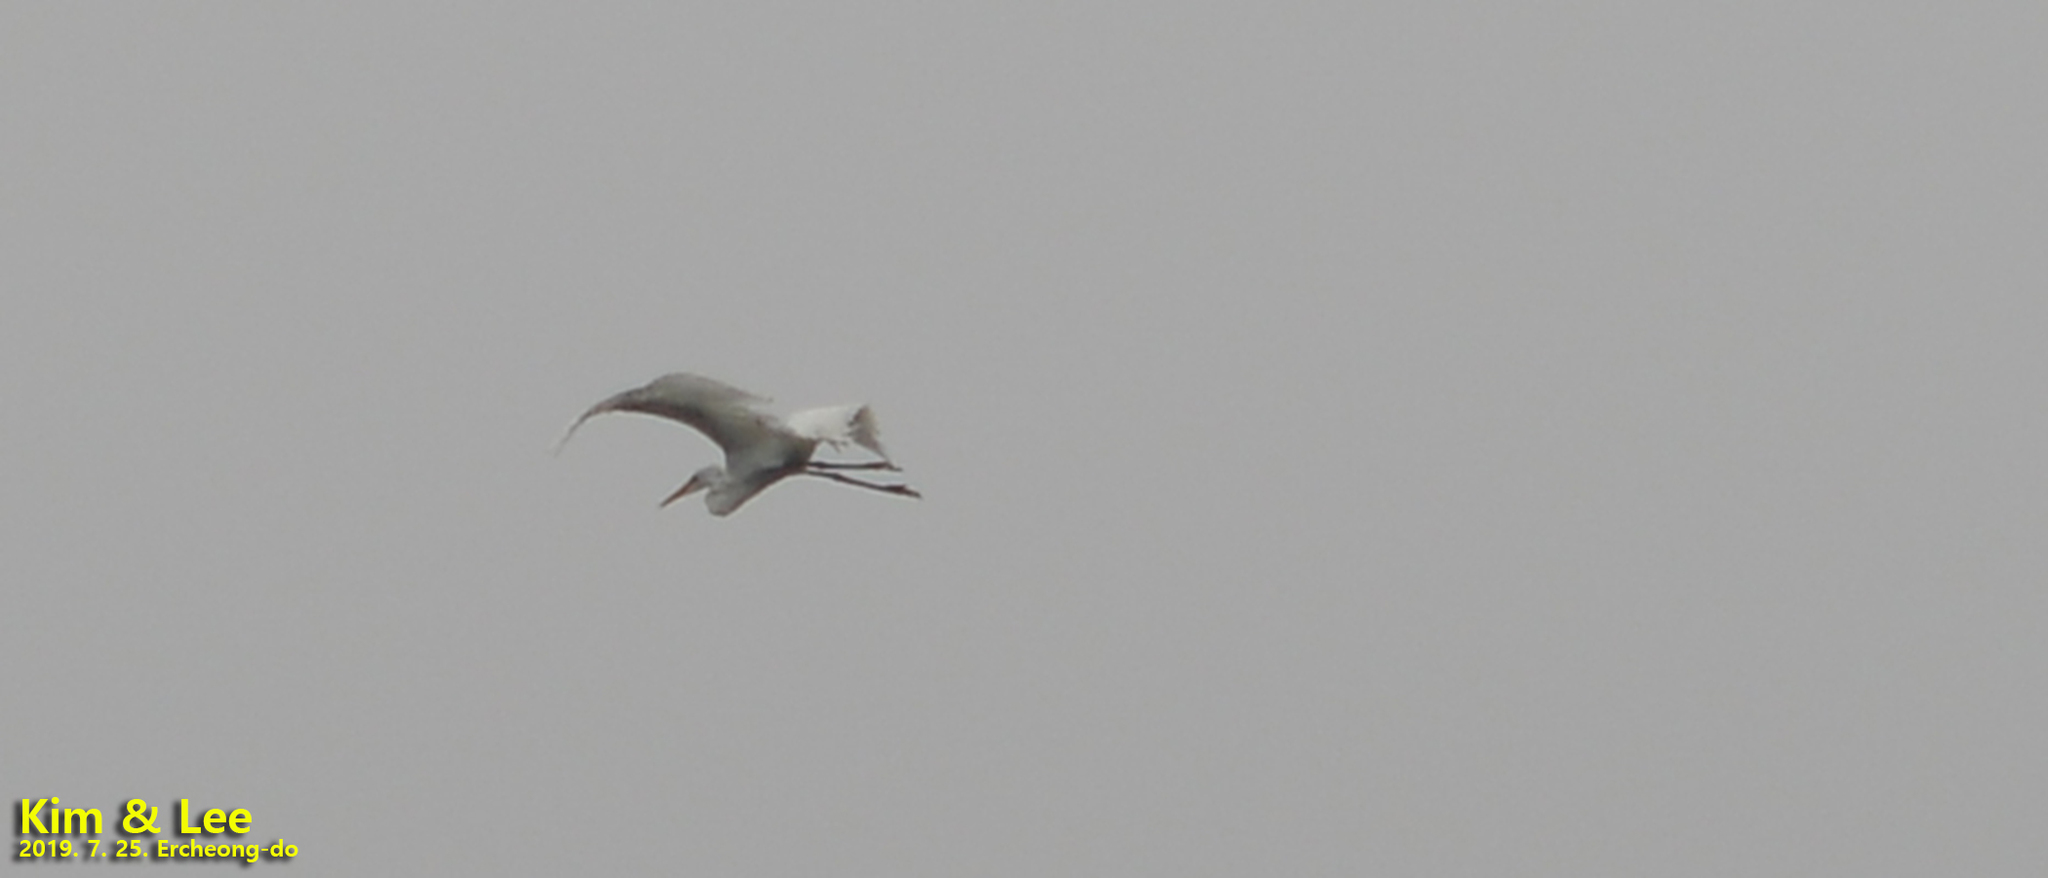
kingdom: Animalia
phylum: Chordata
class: Aves
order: Pelecaniformes
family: Ardeidae
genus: Ardea
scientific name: Ardea alba
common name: Great egret
